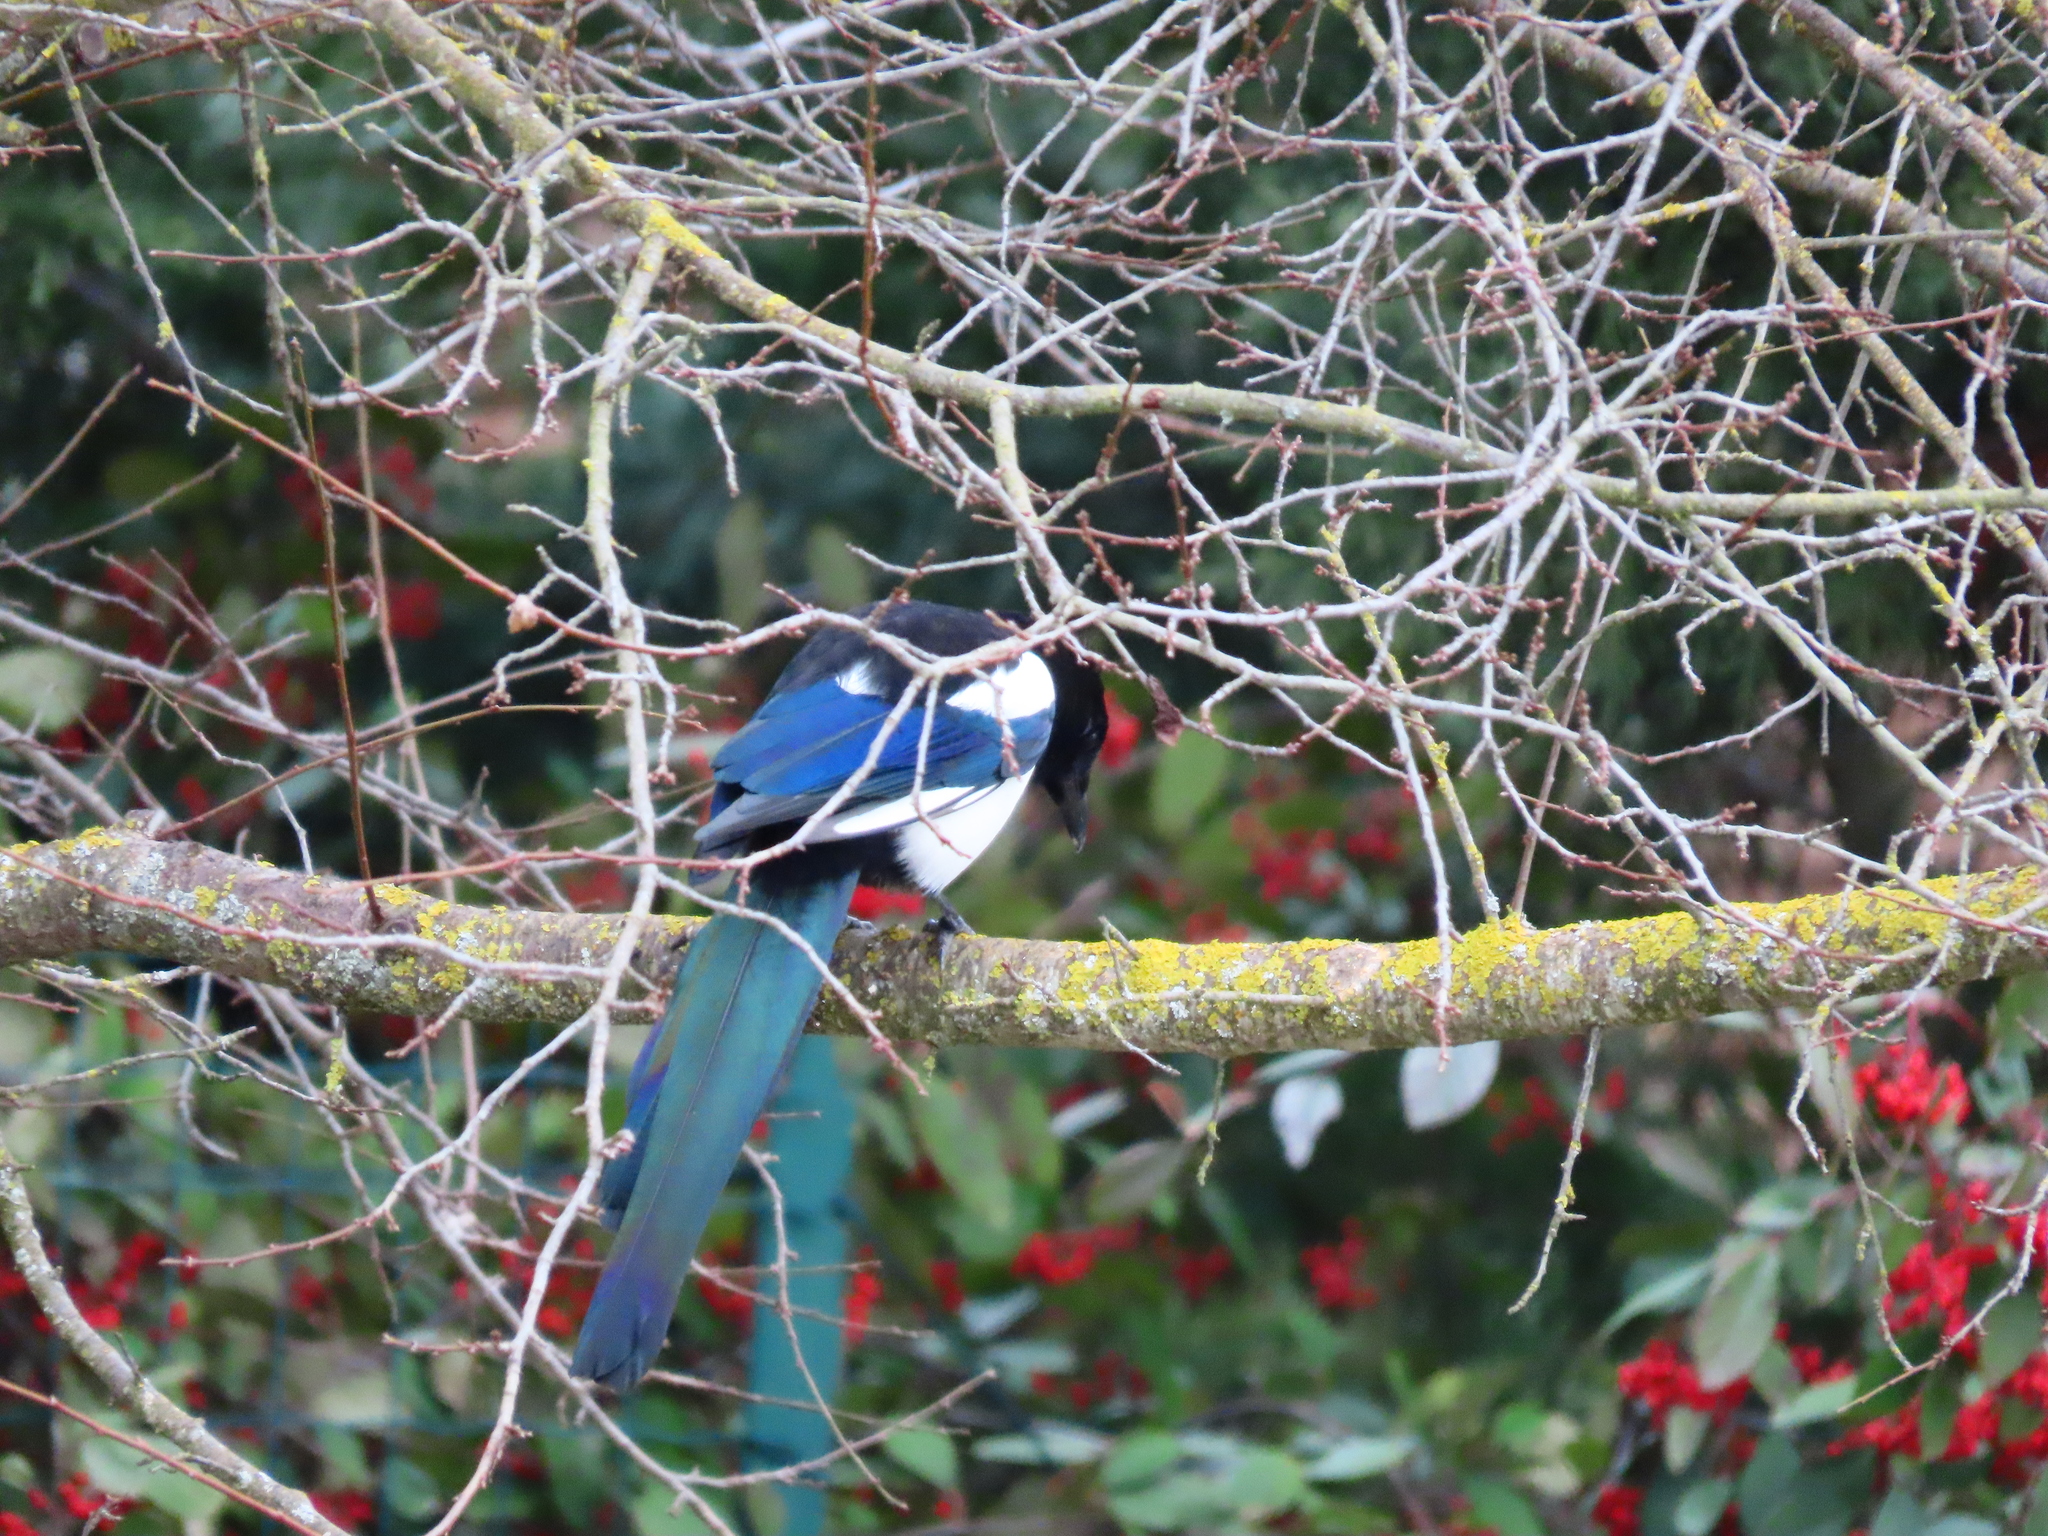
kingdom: Animalia
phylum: Chordata
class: Aves
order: Passeriformes
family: Corvidae
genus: Pica
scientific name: Pica pica
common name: Eurasian magpie
